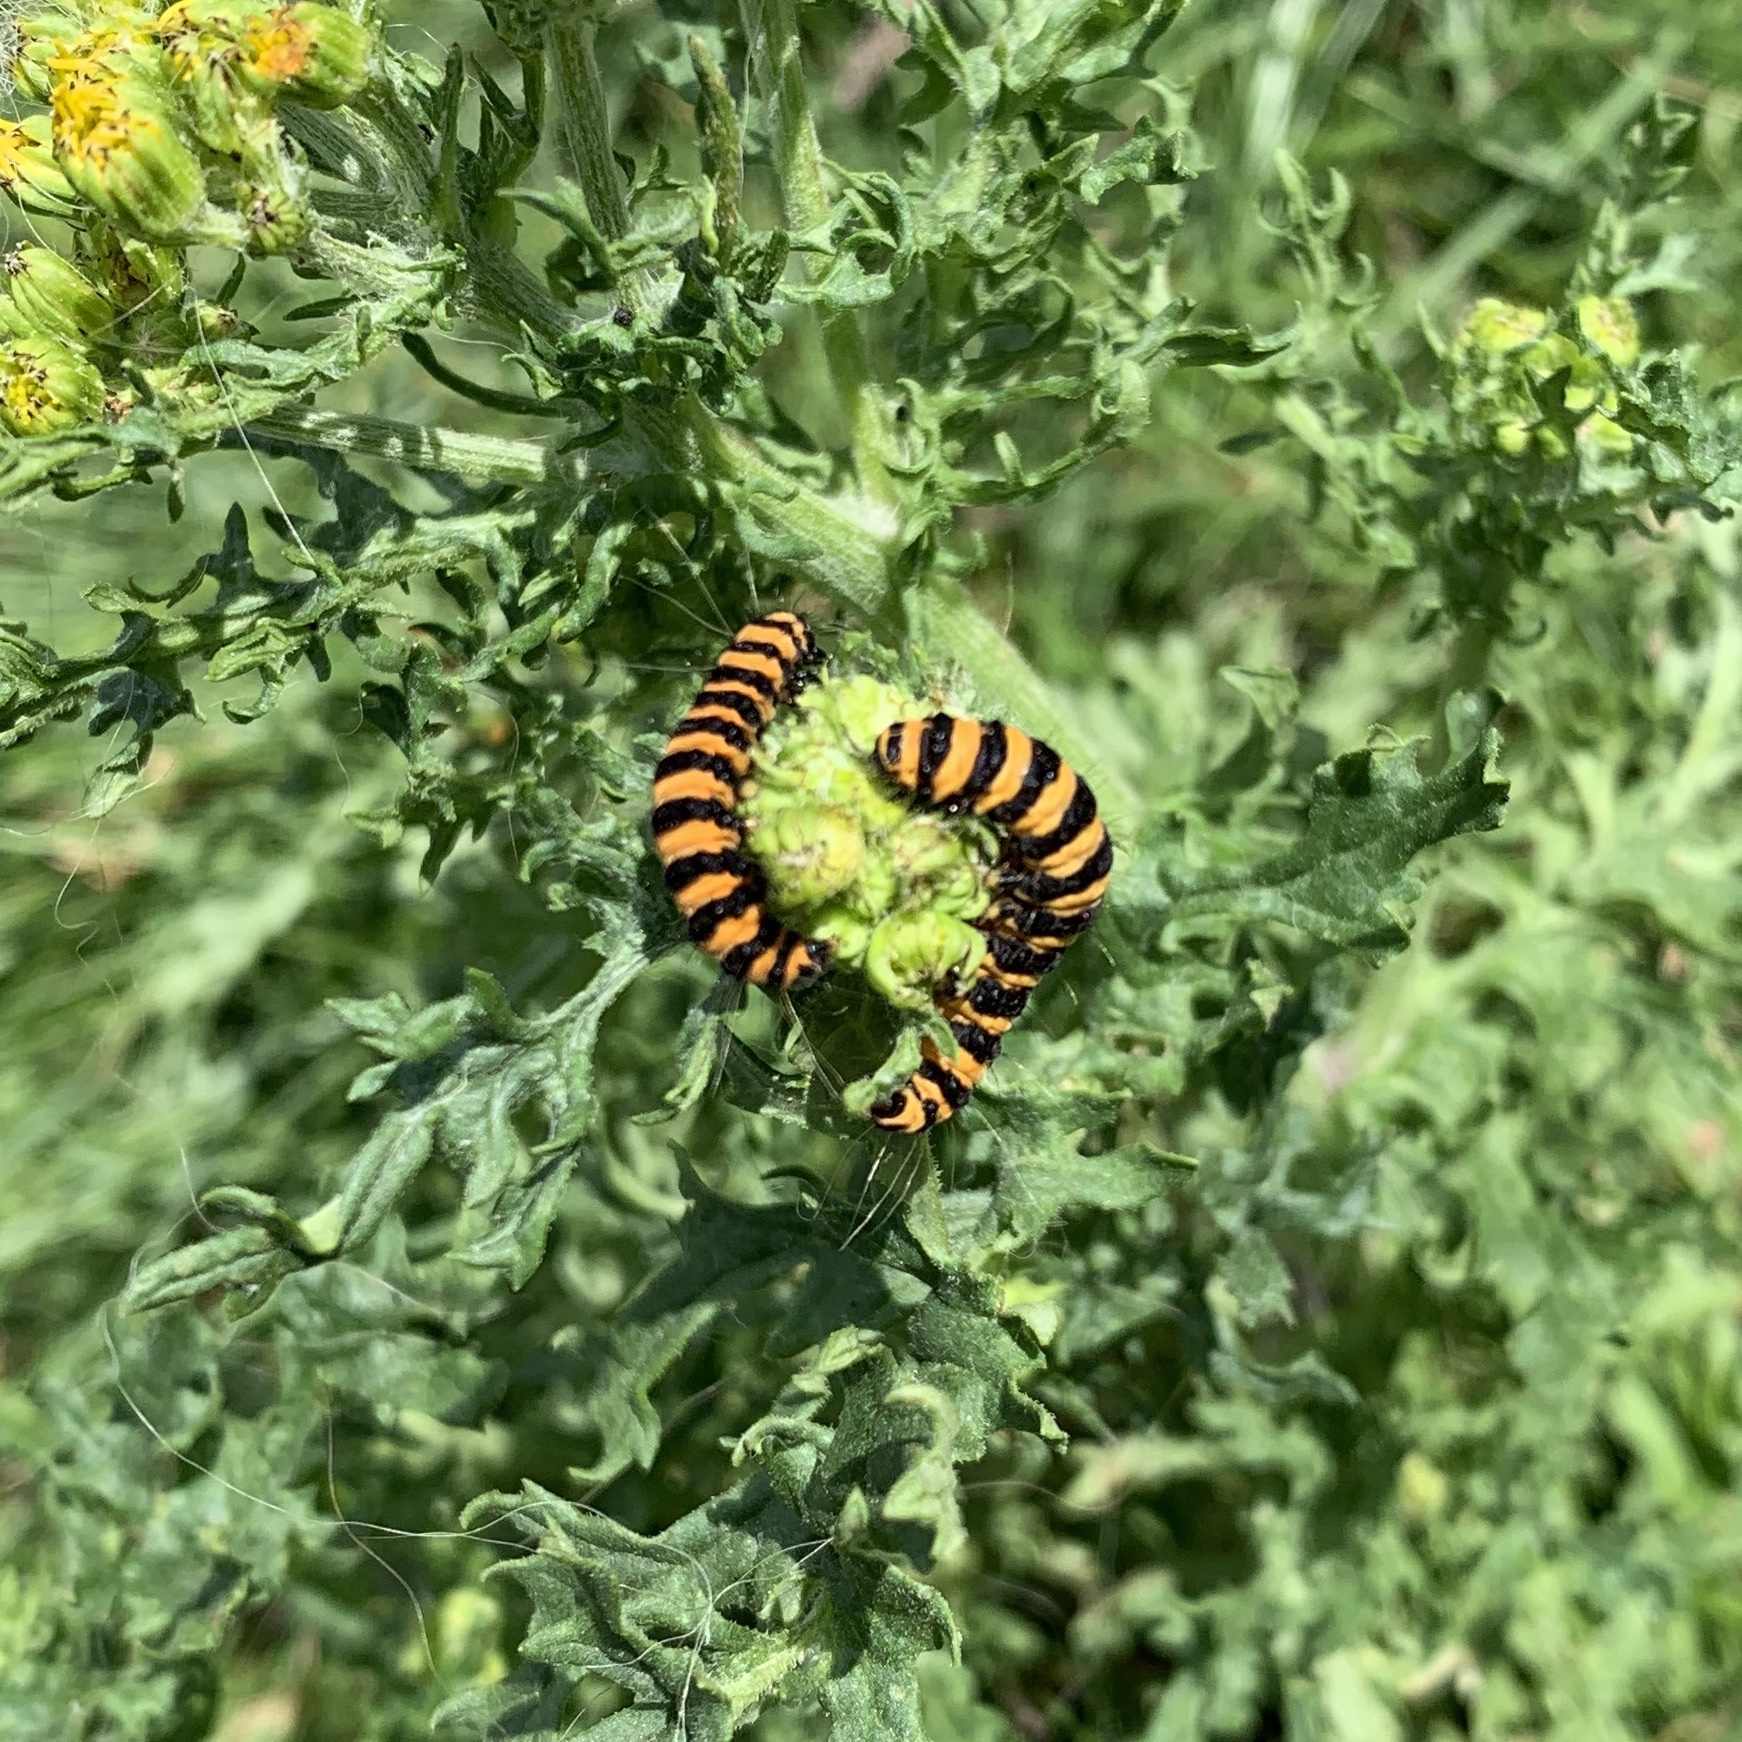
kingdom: Animalia
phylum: Arthropoda
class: Insecta
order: Lepidoptera
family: Erebidae
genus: Tyria
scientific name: Tyria jacobaeae
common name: Cinnabar
